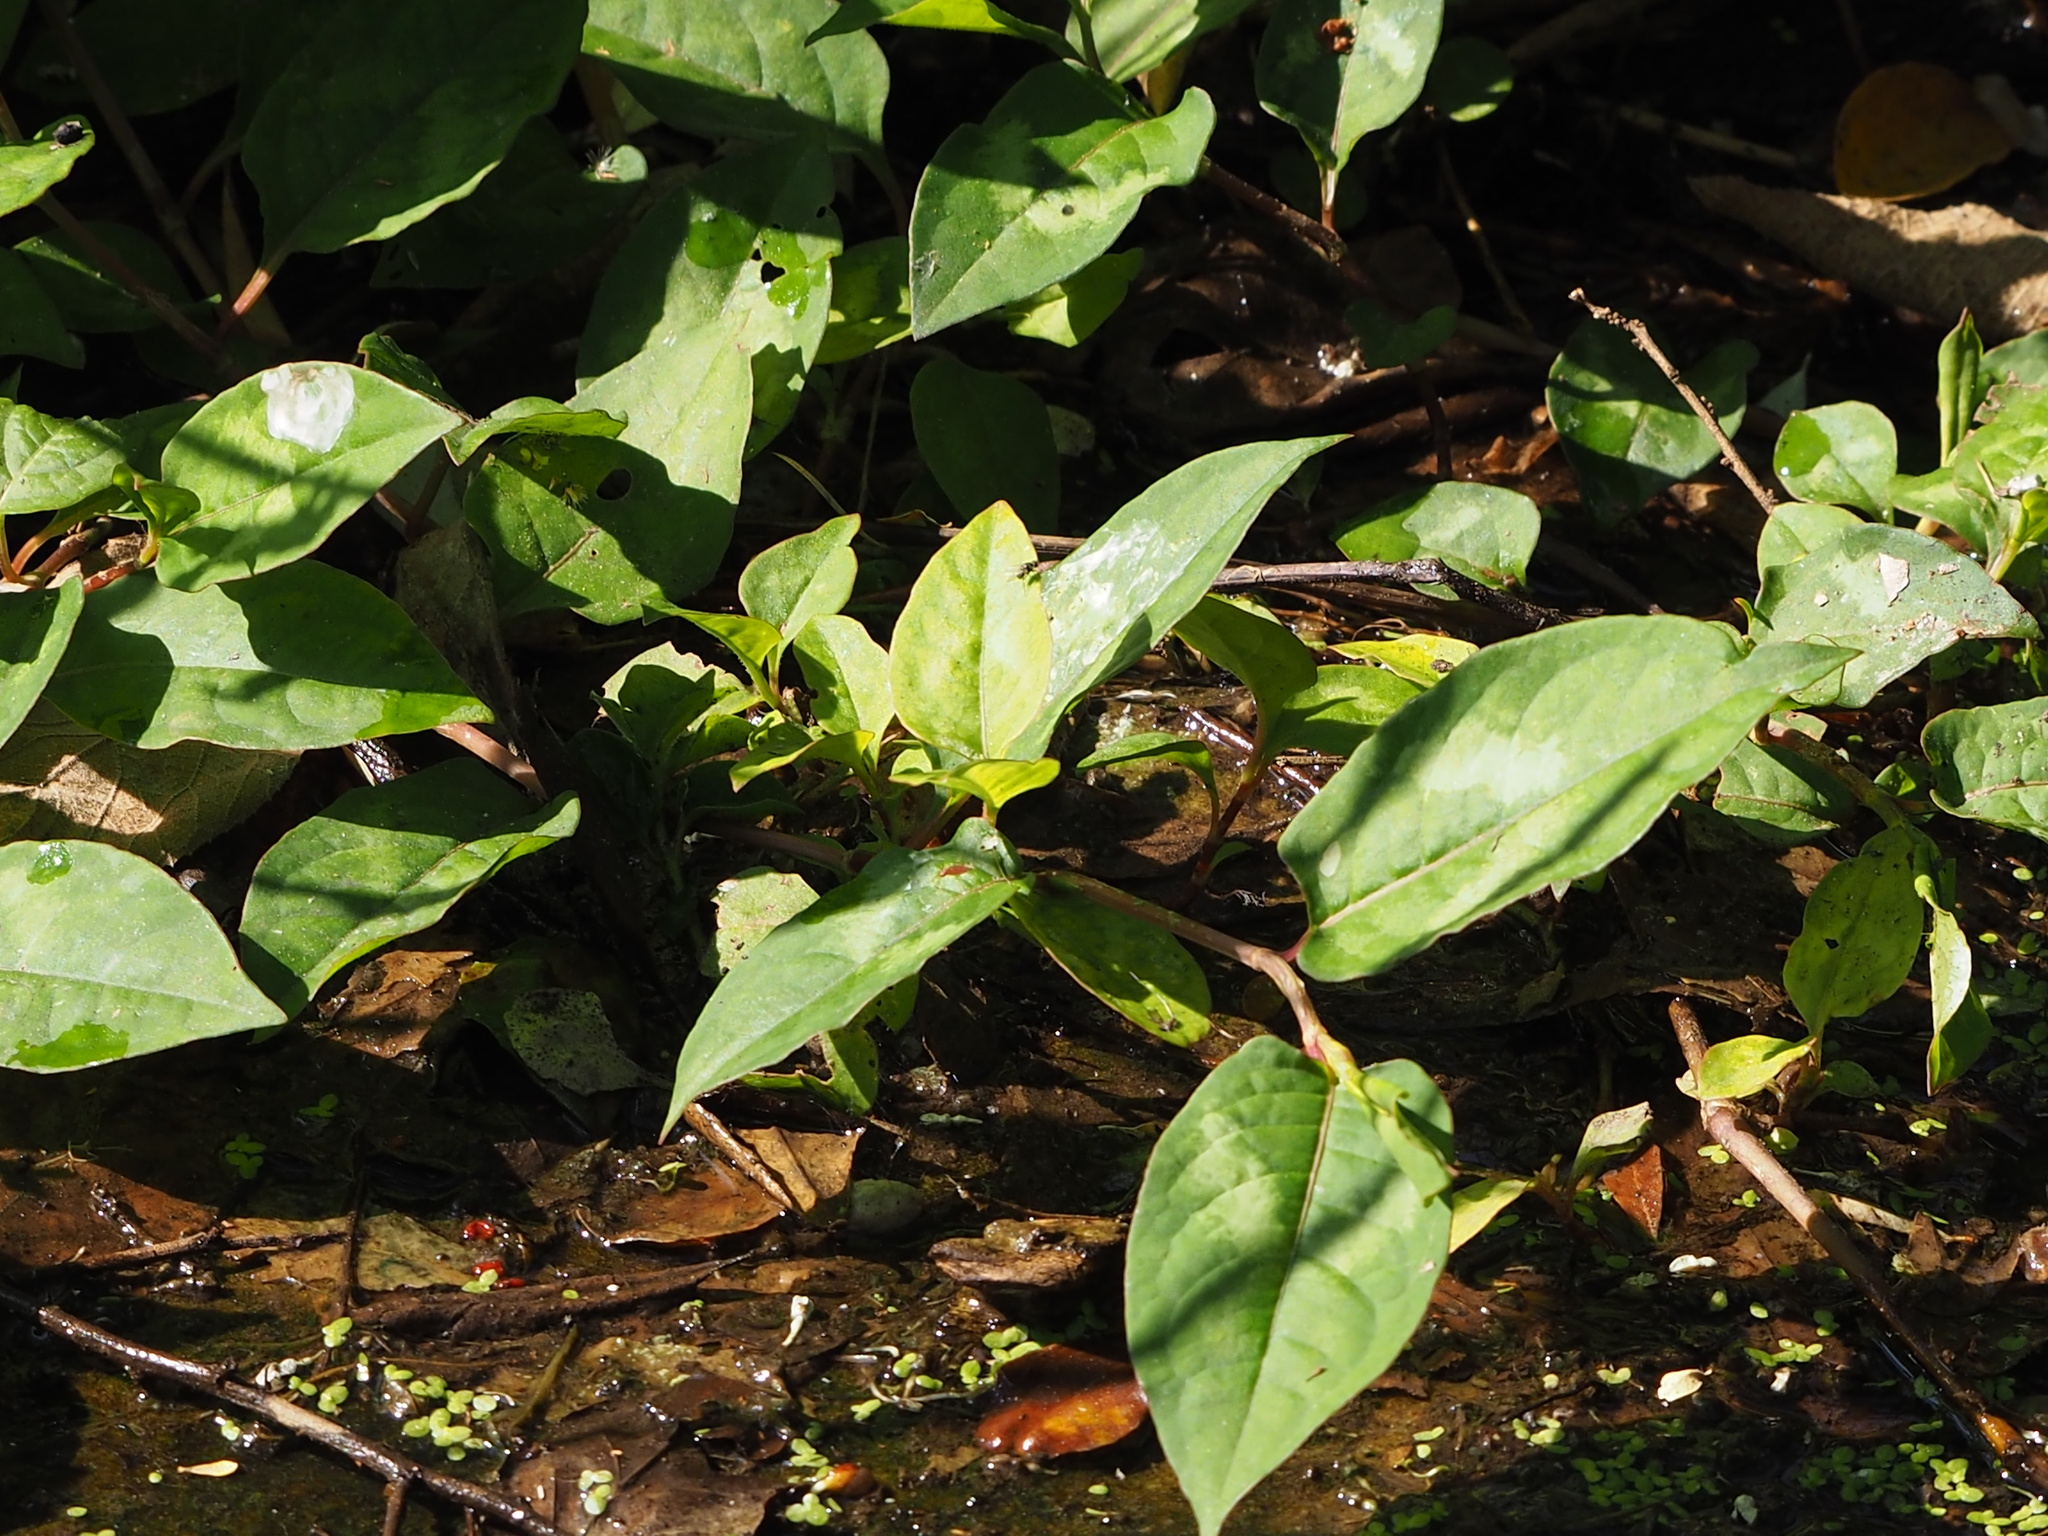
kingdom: Plantae
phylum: Tracheophyta
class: Magnoliopsida
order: Caryophyllales
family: Polygonaceae
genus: Persicaria
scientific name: Persicaria chinensis
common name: Chinese knotweed
